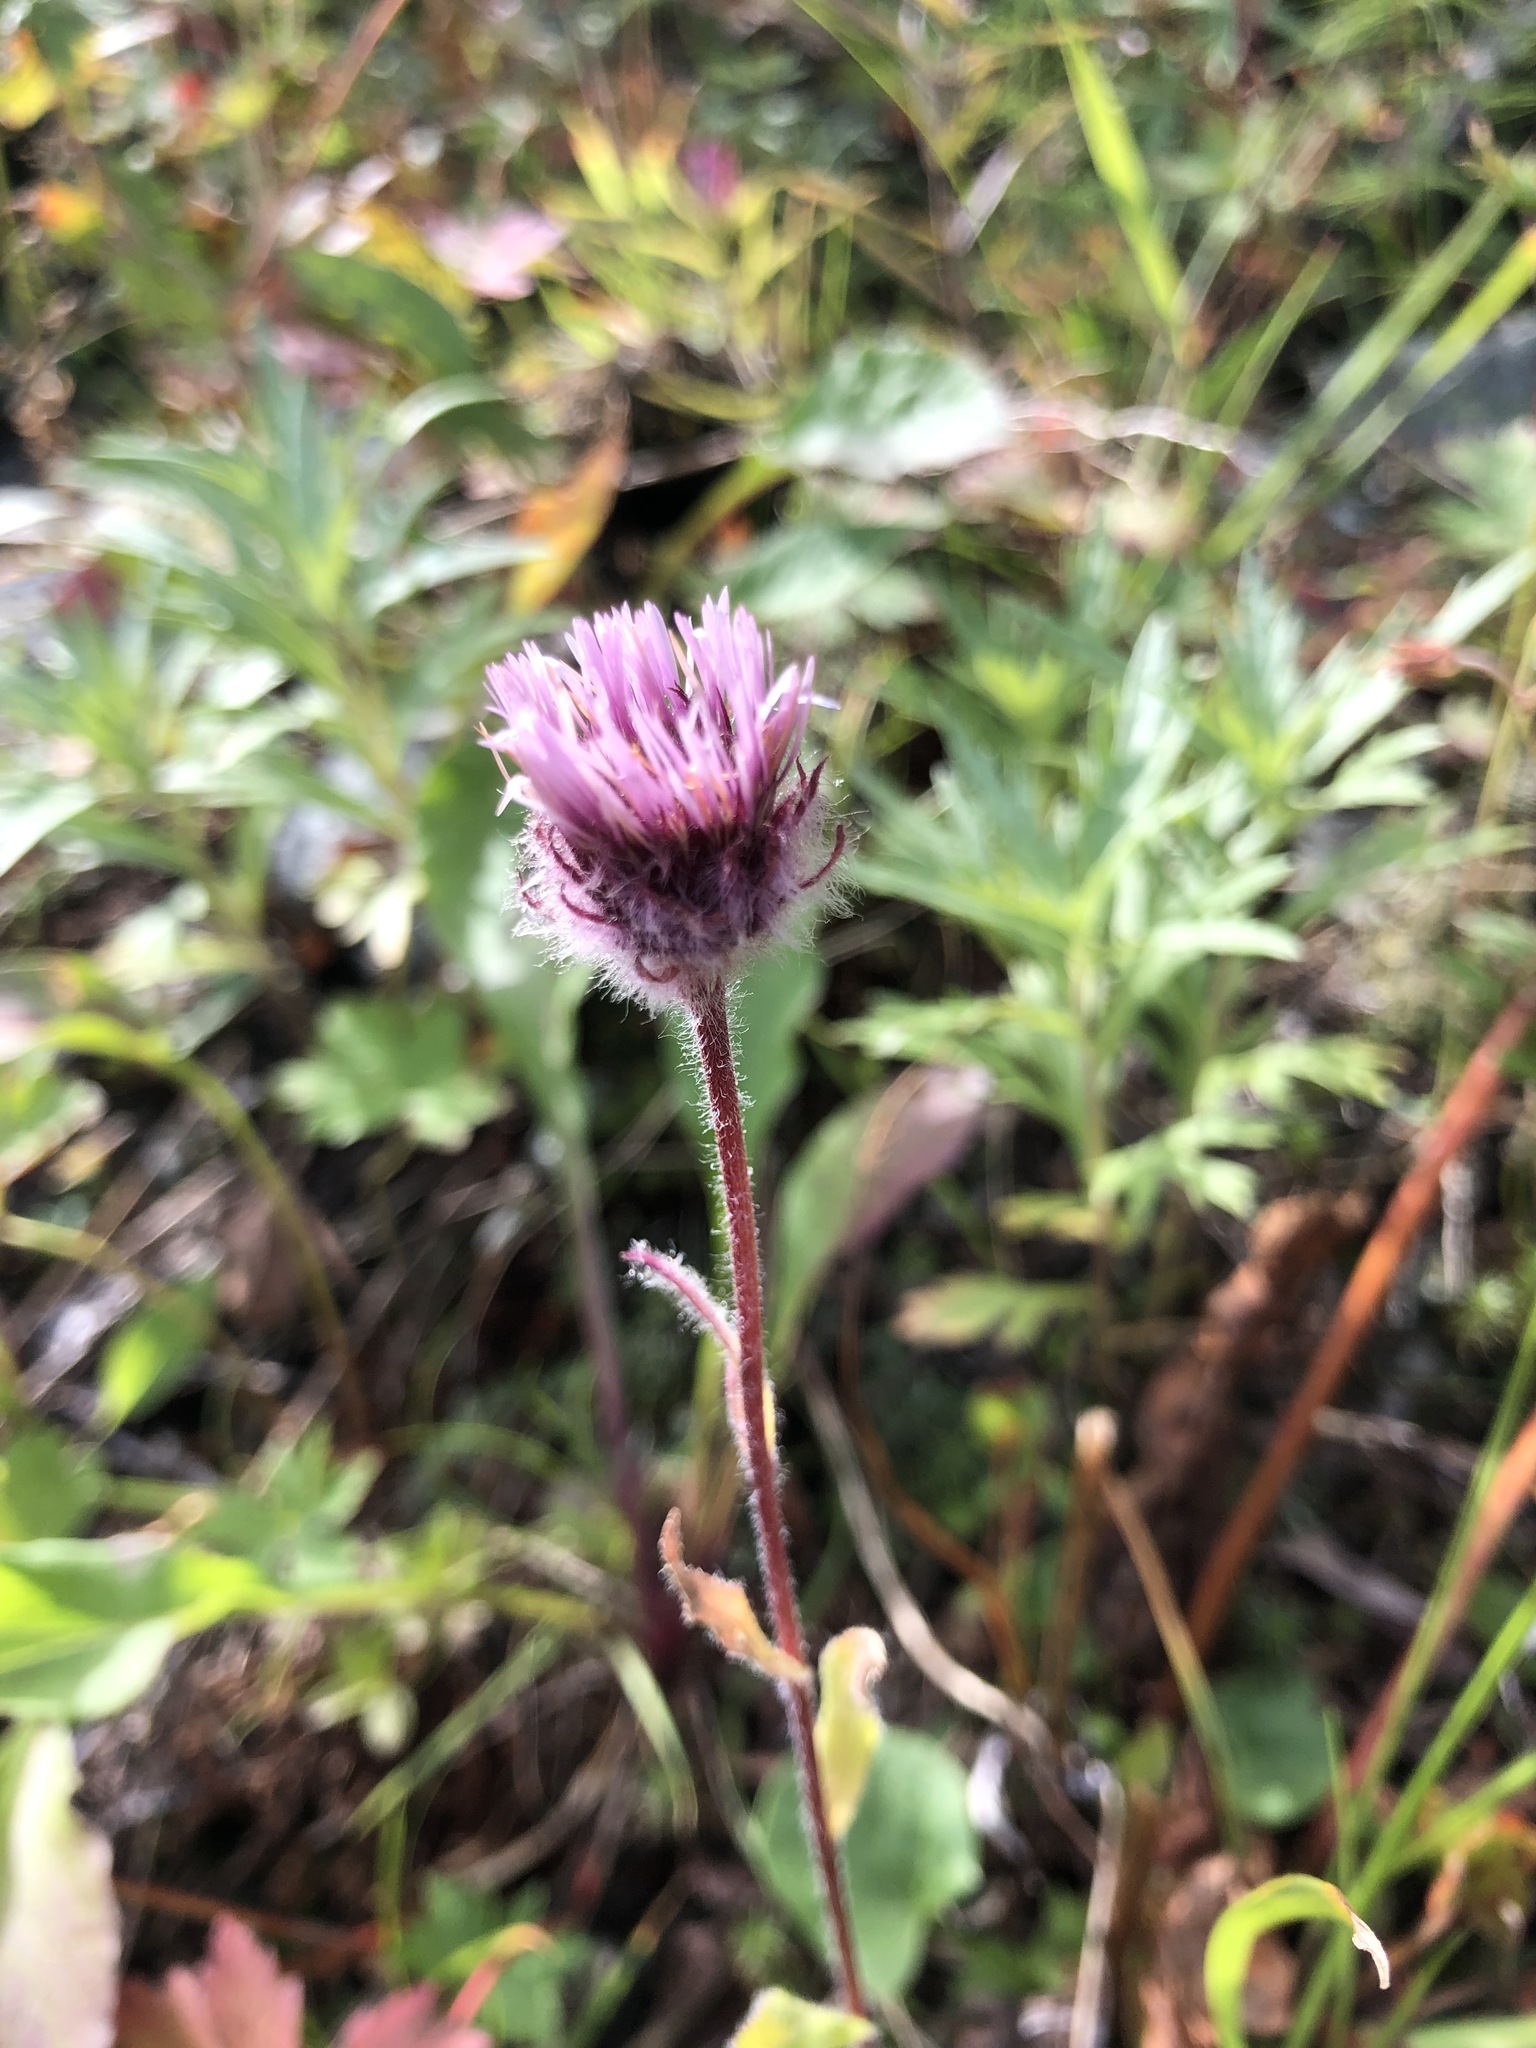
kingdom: Plantae
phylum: Tracheophyta
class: Magnoliopsida
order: Asterales
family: Asteraceae
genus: Erigeron
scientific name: Erigeron eriocephalus
